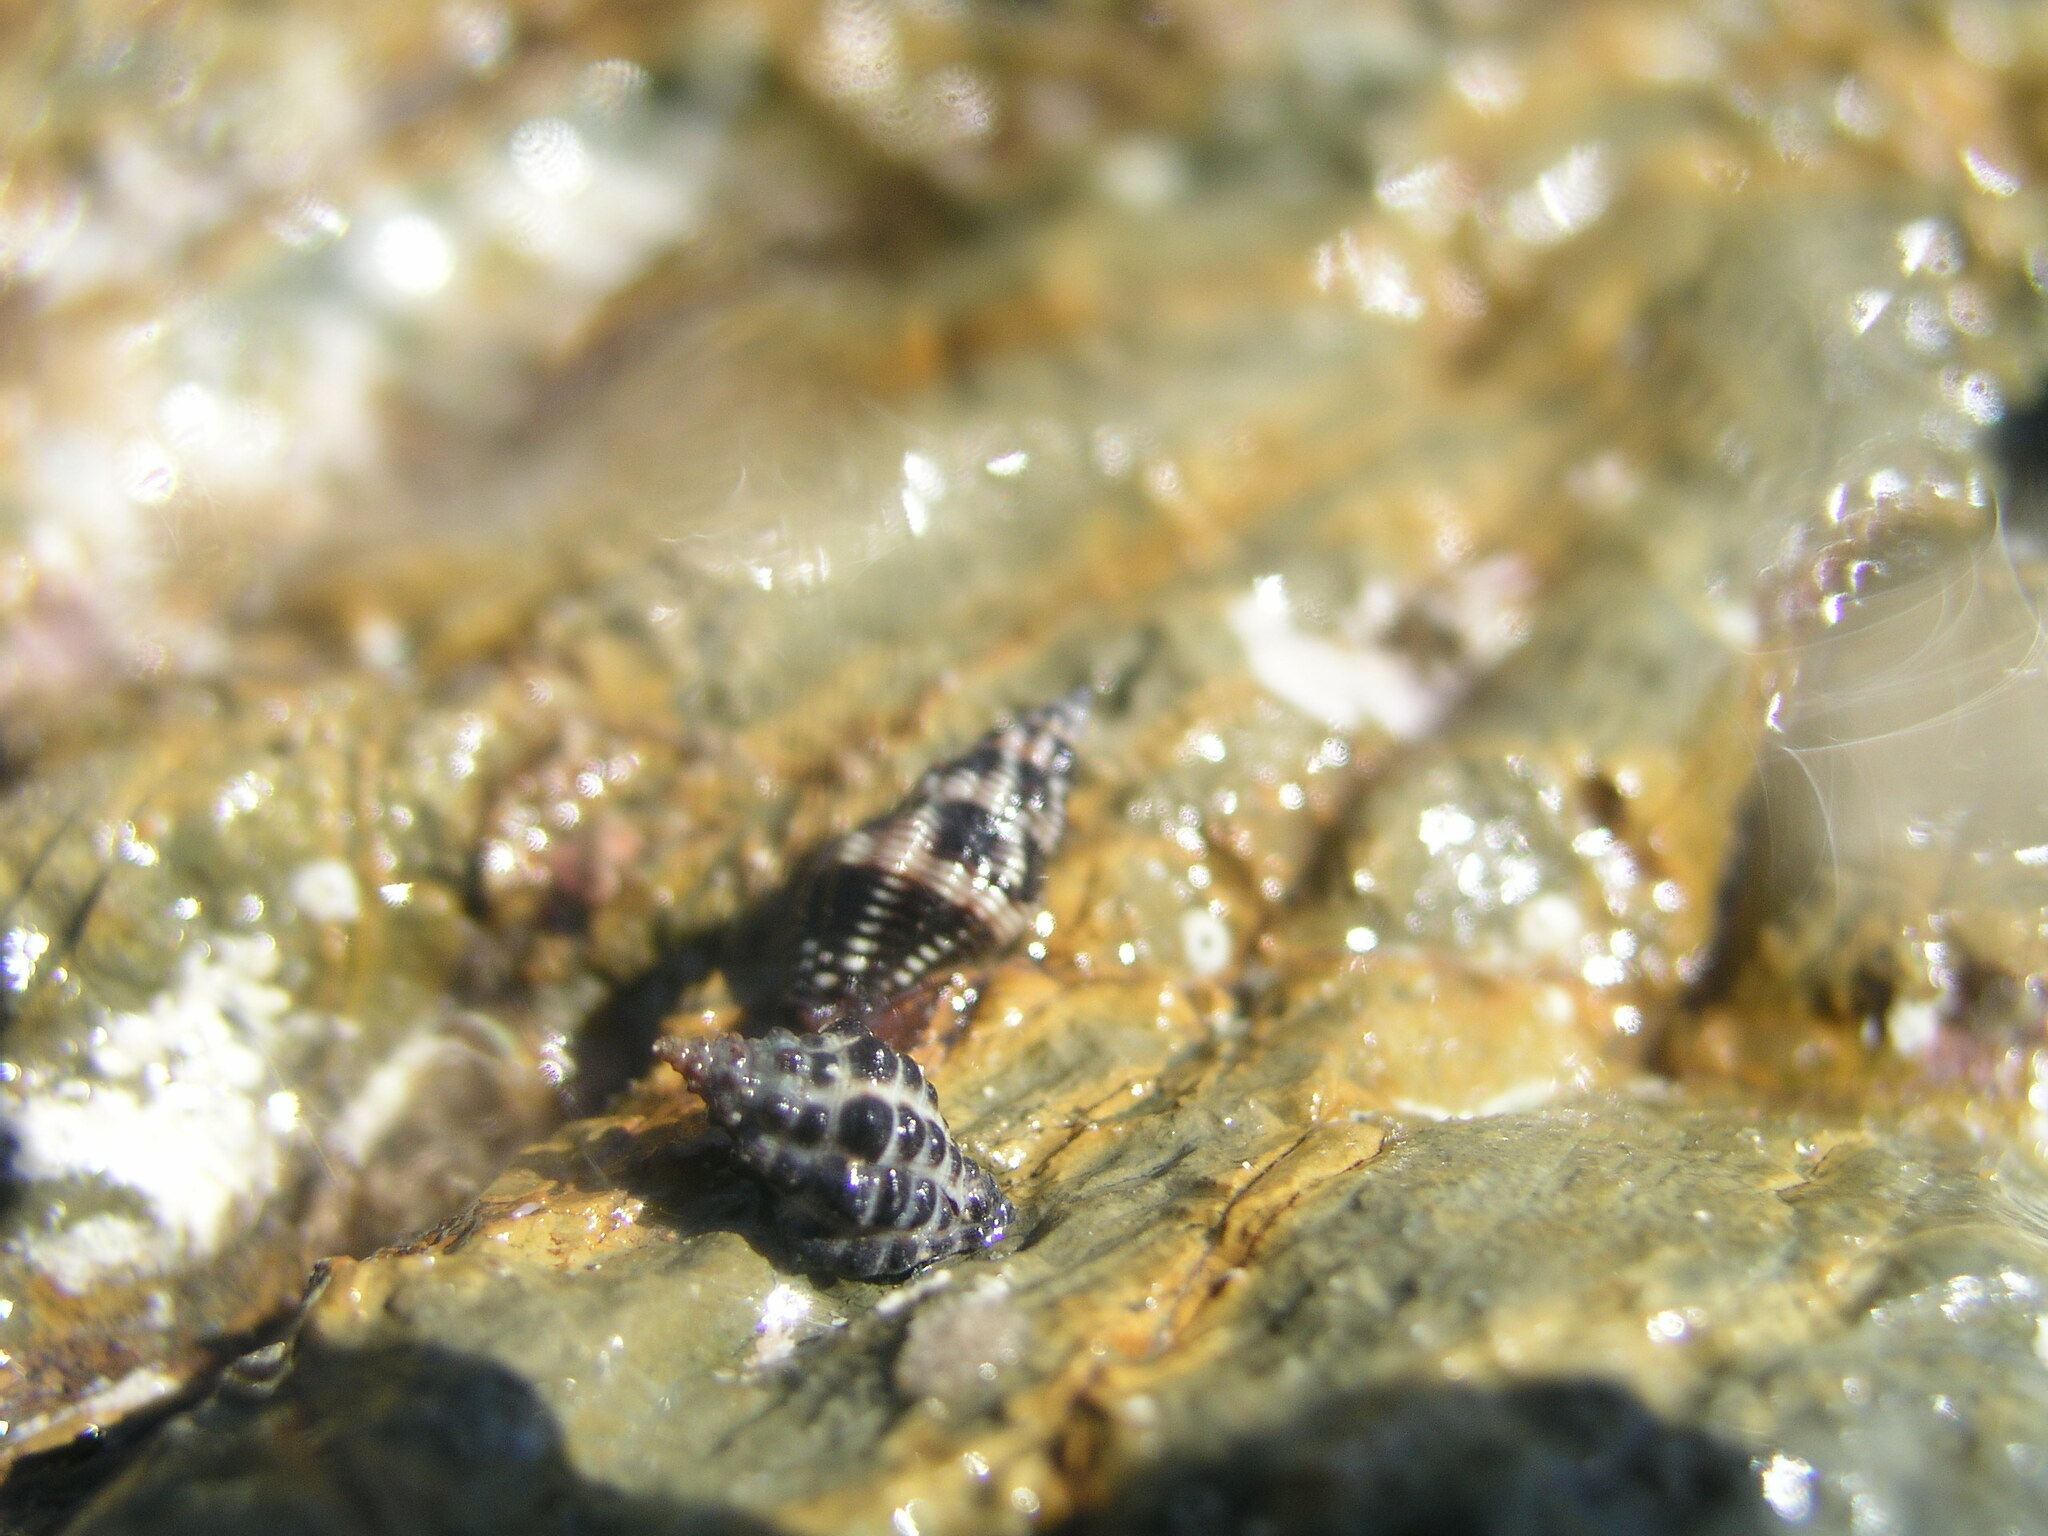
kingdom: Animalia
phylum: Mollusca
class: Gastropoda
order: Neogastropoda
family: Muricidae
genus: Tenguella
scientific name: Tenguella marginalba
